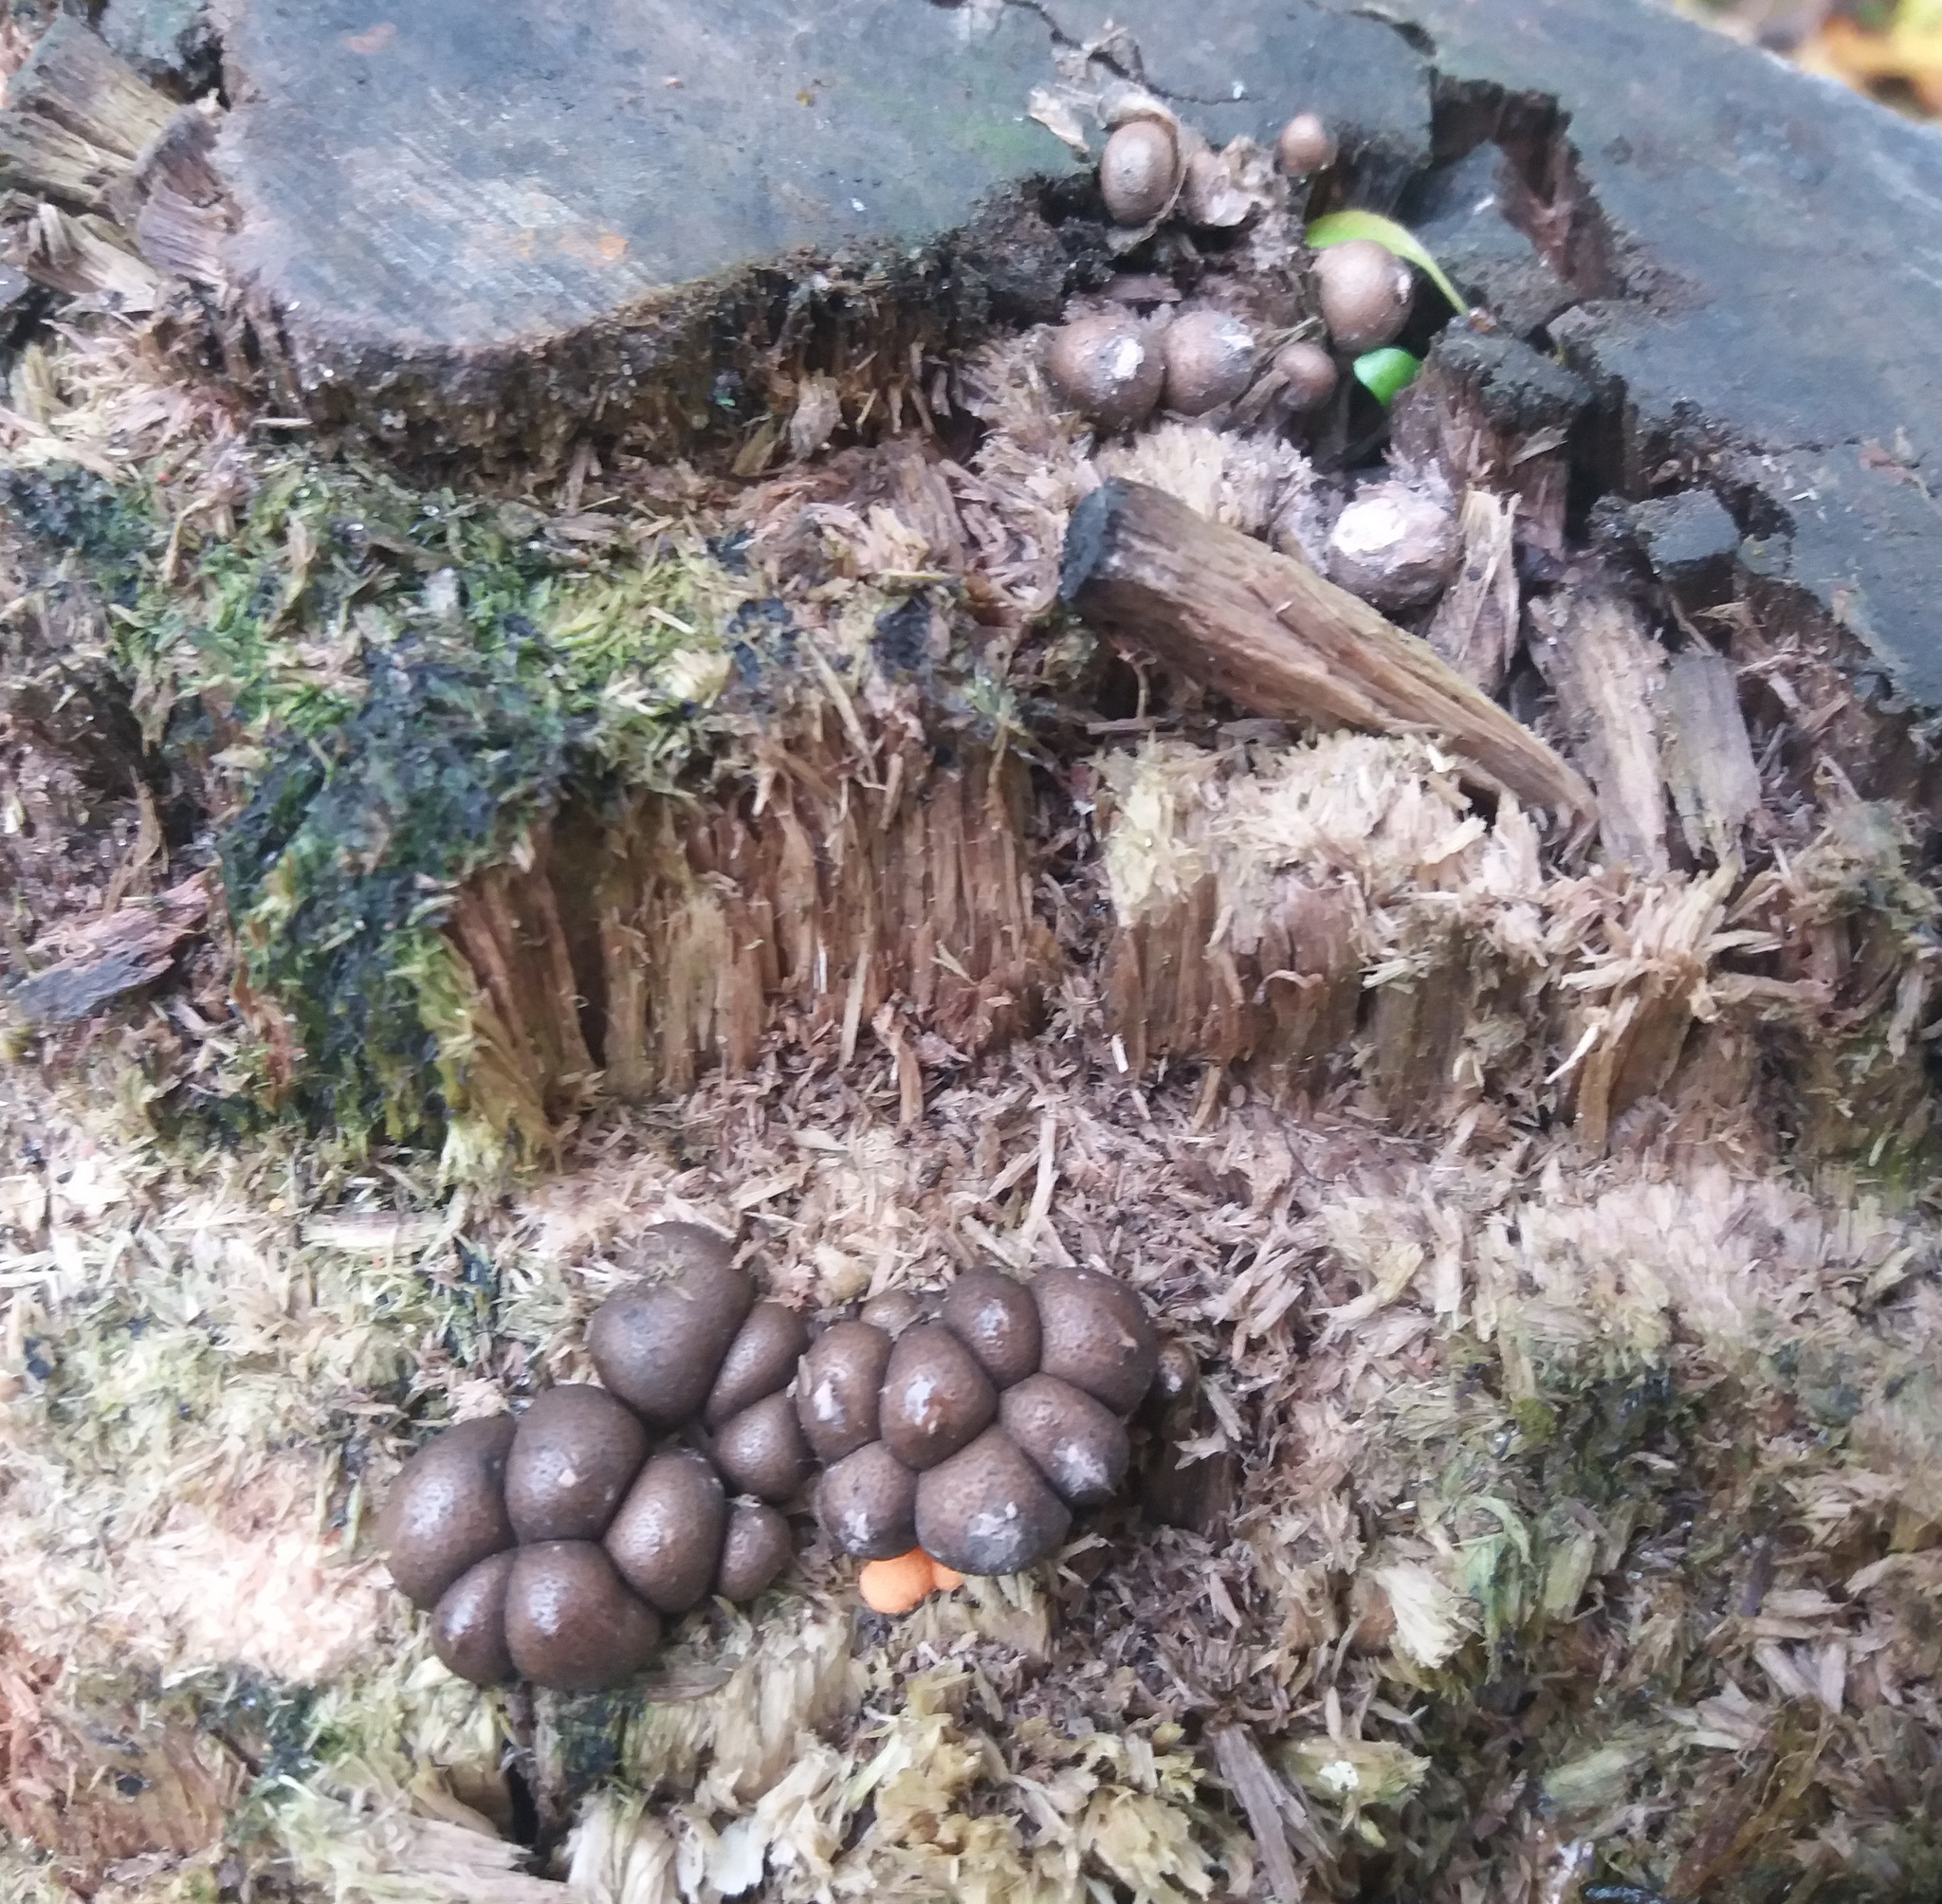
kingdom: Protozoa
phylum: Mycetozoa
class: Myxomycetes
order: Cribrariales
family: Tubiferaceae
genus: Lycogala
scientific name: Lycogala epidendrum
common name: Wolf's milk
